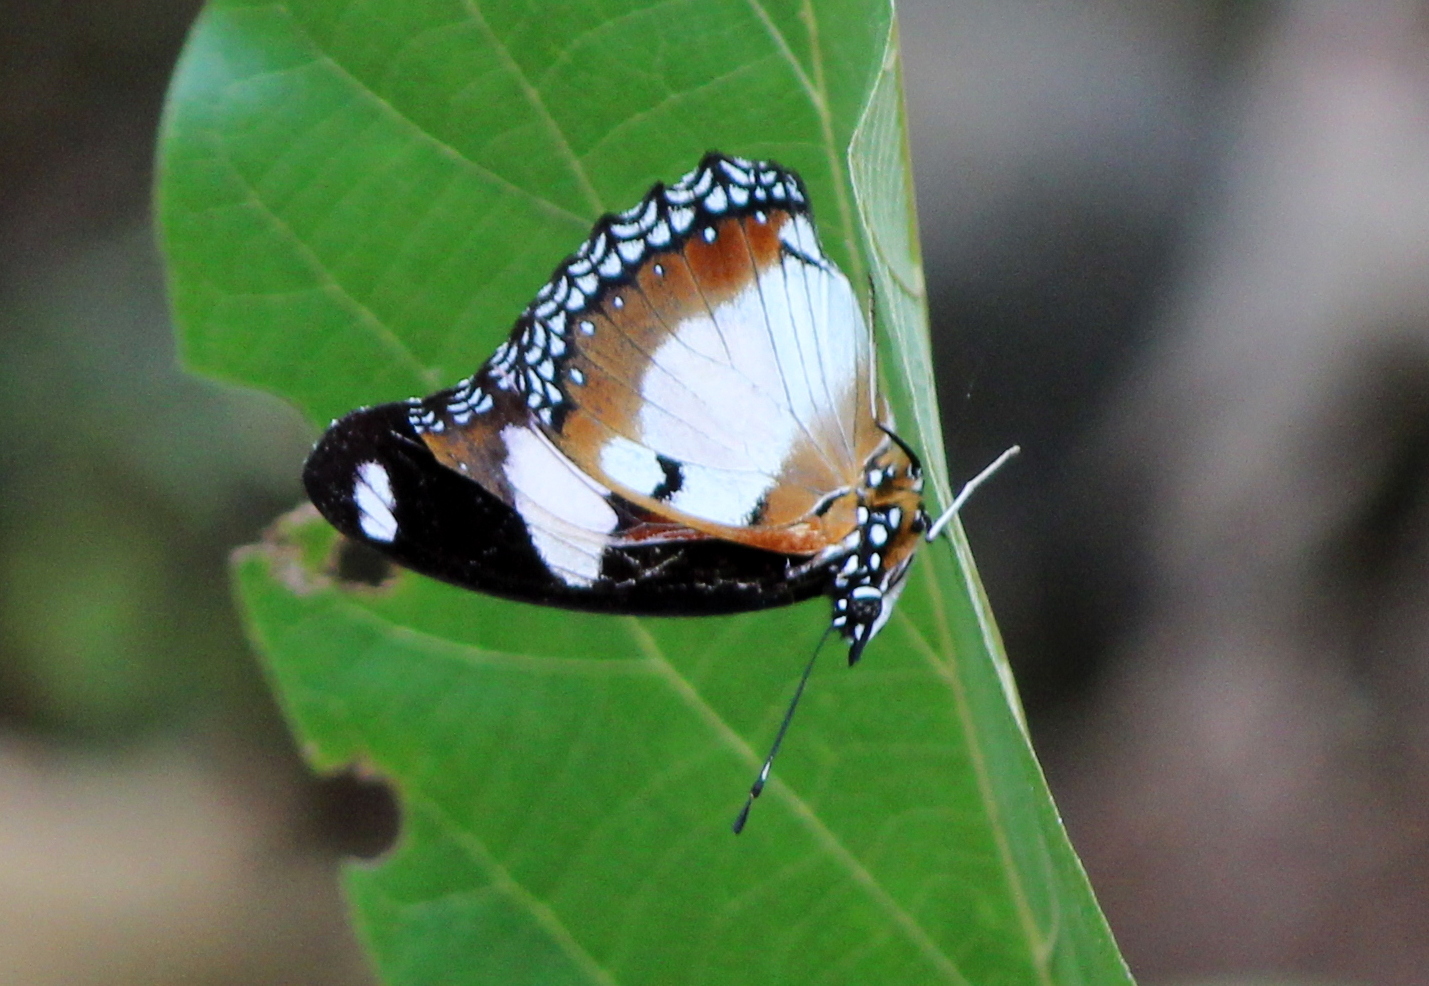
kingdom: Animalia
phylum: Arthropoda
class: Insecta
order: Lepidoptera
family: Nymphalidae
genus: Hypolimnas
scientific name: Hypolimnas misippus
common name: False plain tiger
